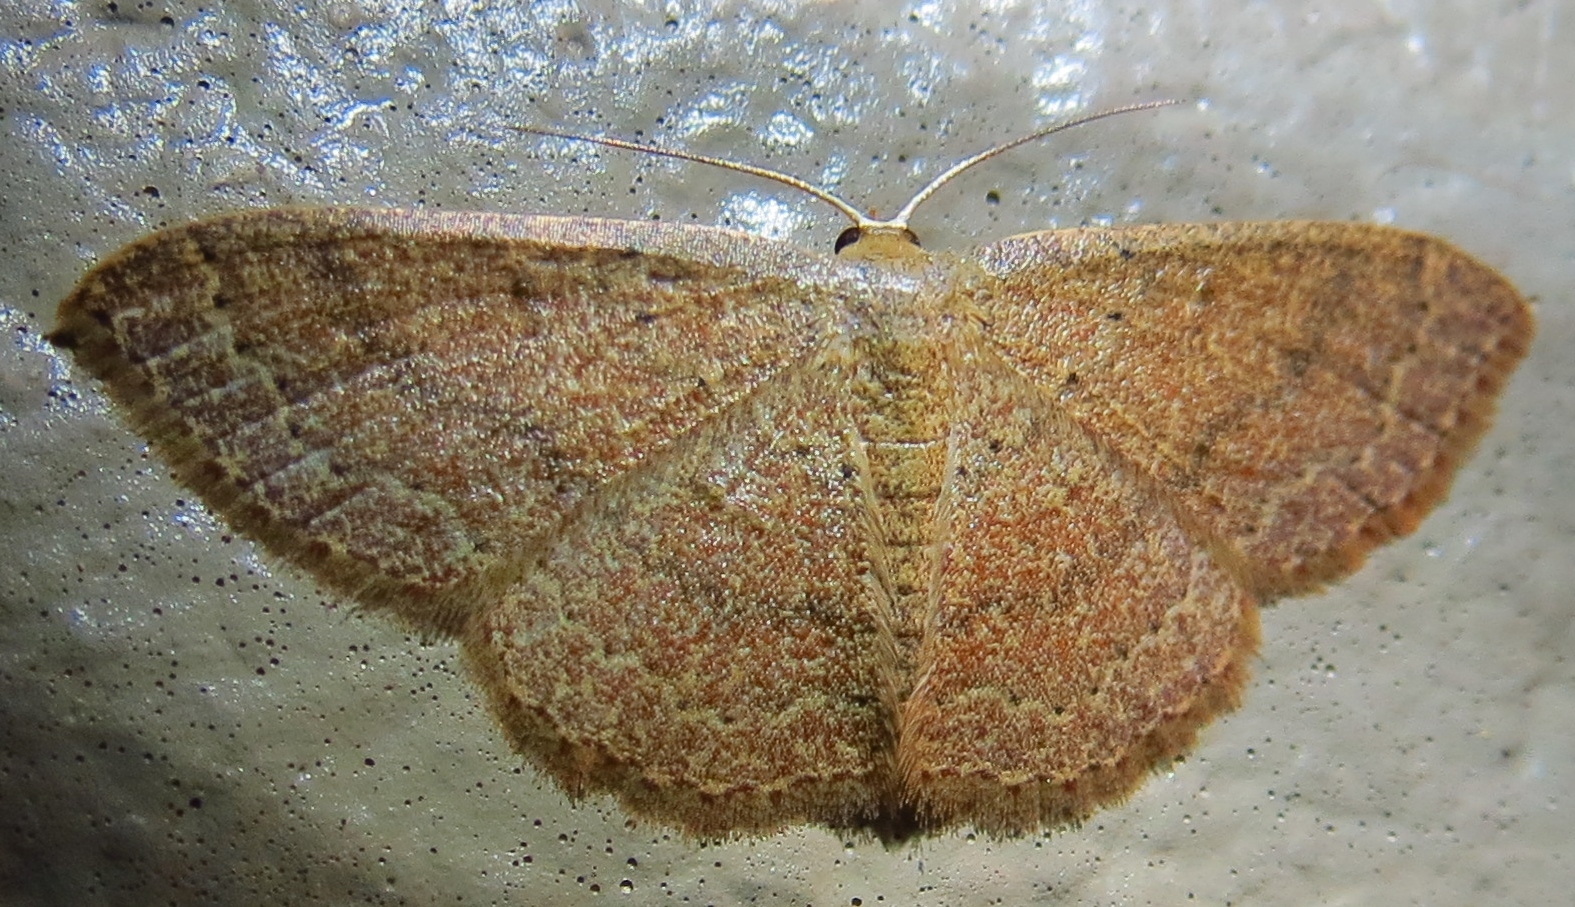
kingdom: Animalia
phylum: Arthropoda
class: Insecta
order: Lepidoptera
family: Geometridae
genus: Pleuroprucha
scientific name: Pleuroprucha insulsaria
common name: Common tan wave
